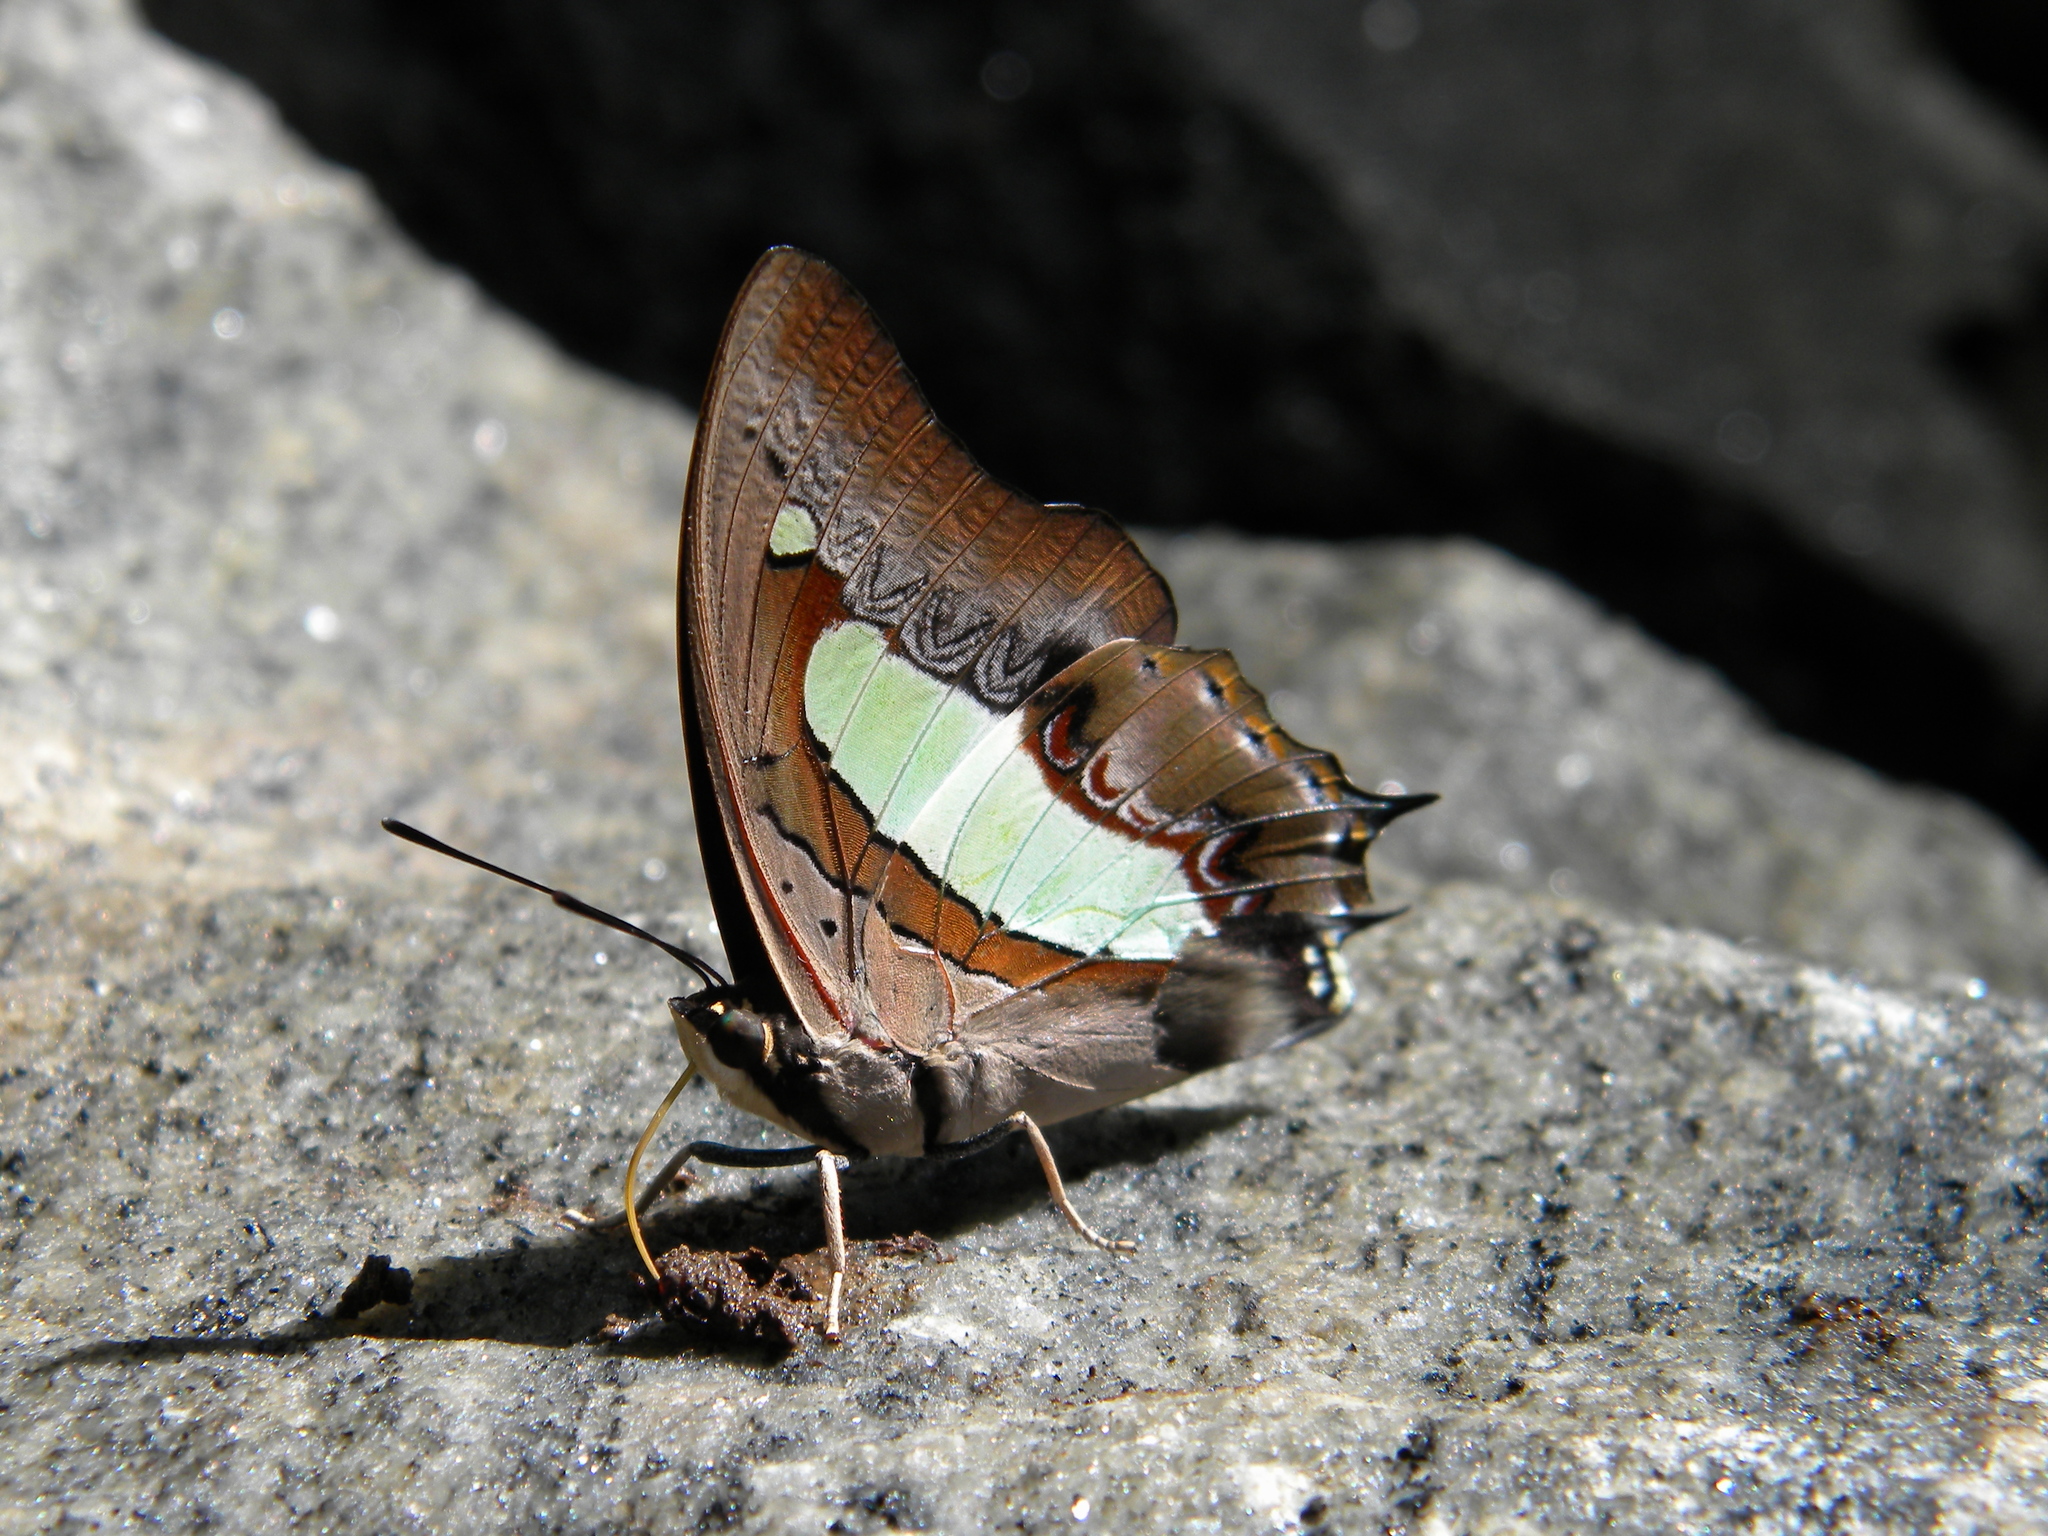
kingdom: Animalia
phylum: Arthropoda
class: Insecta
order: Lepidoptera
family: Nymphalidae
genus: Polyura
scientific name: Polyura
